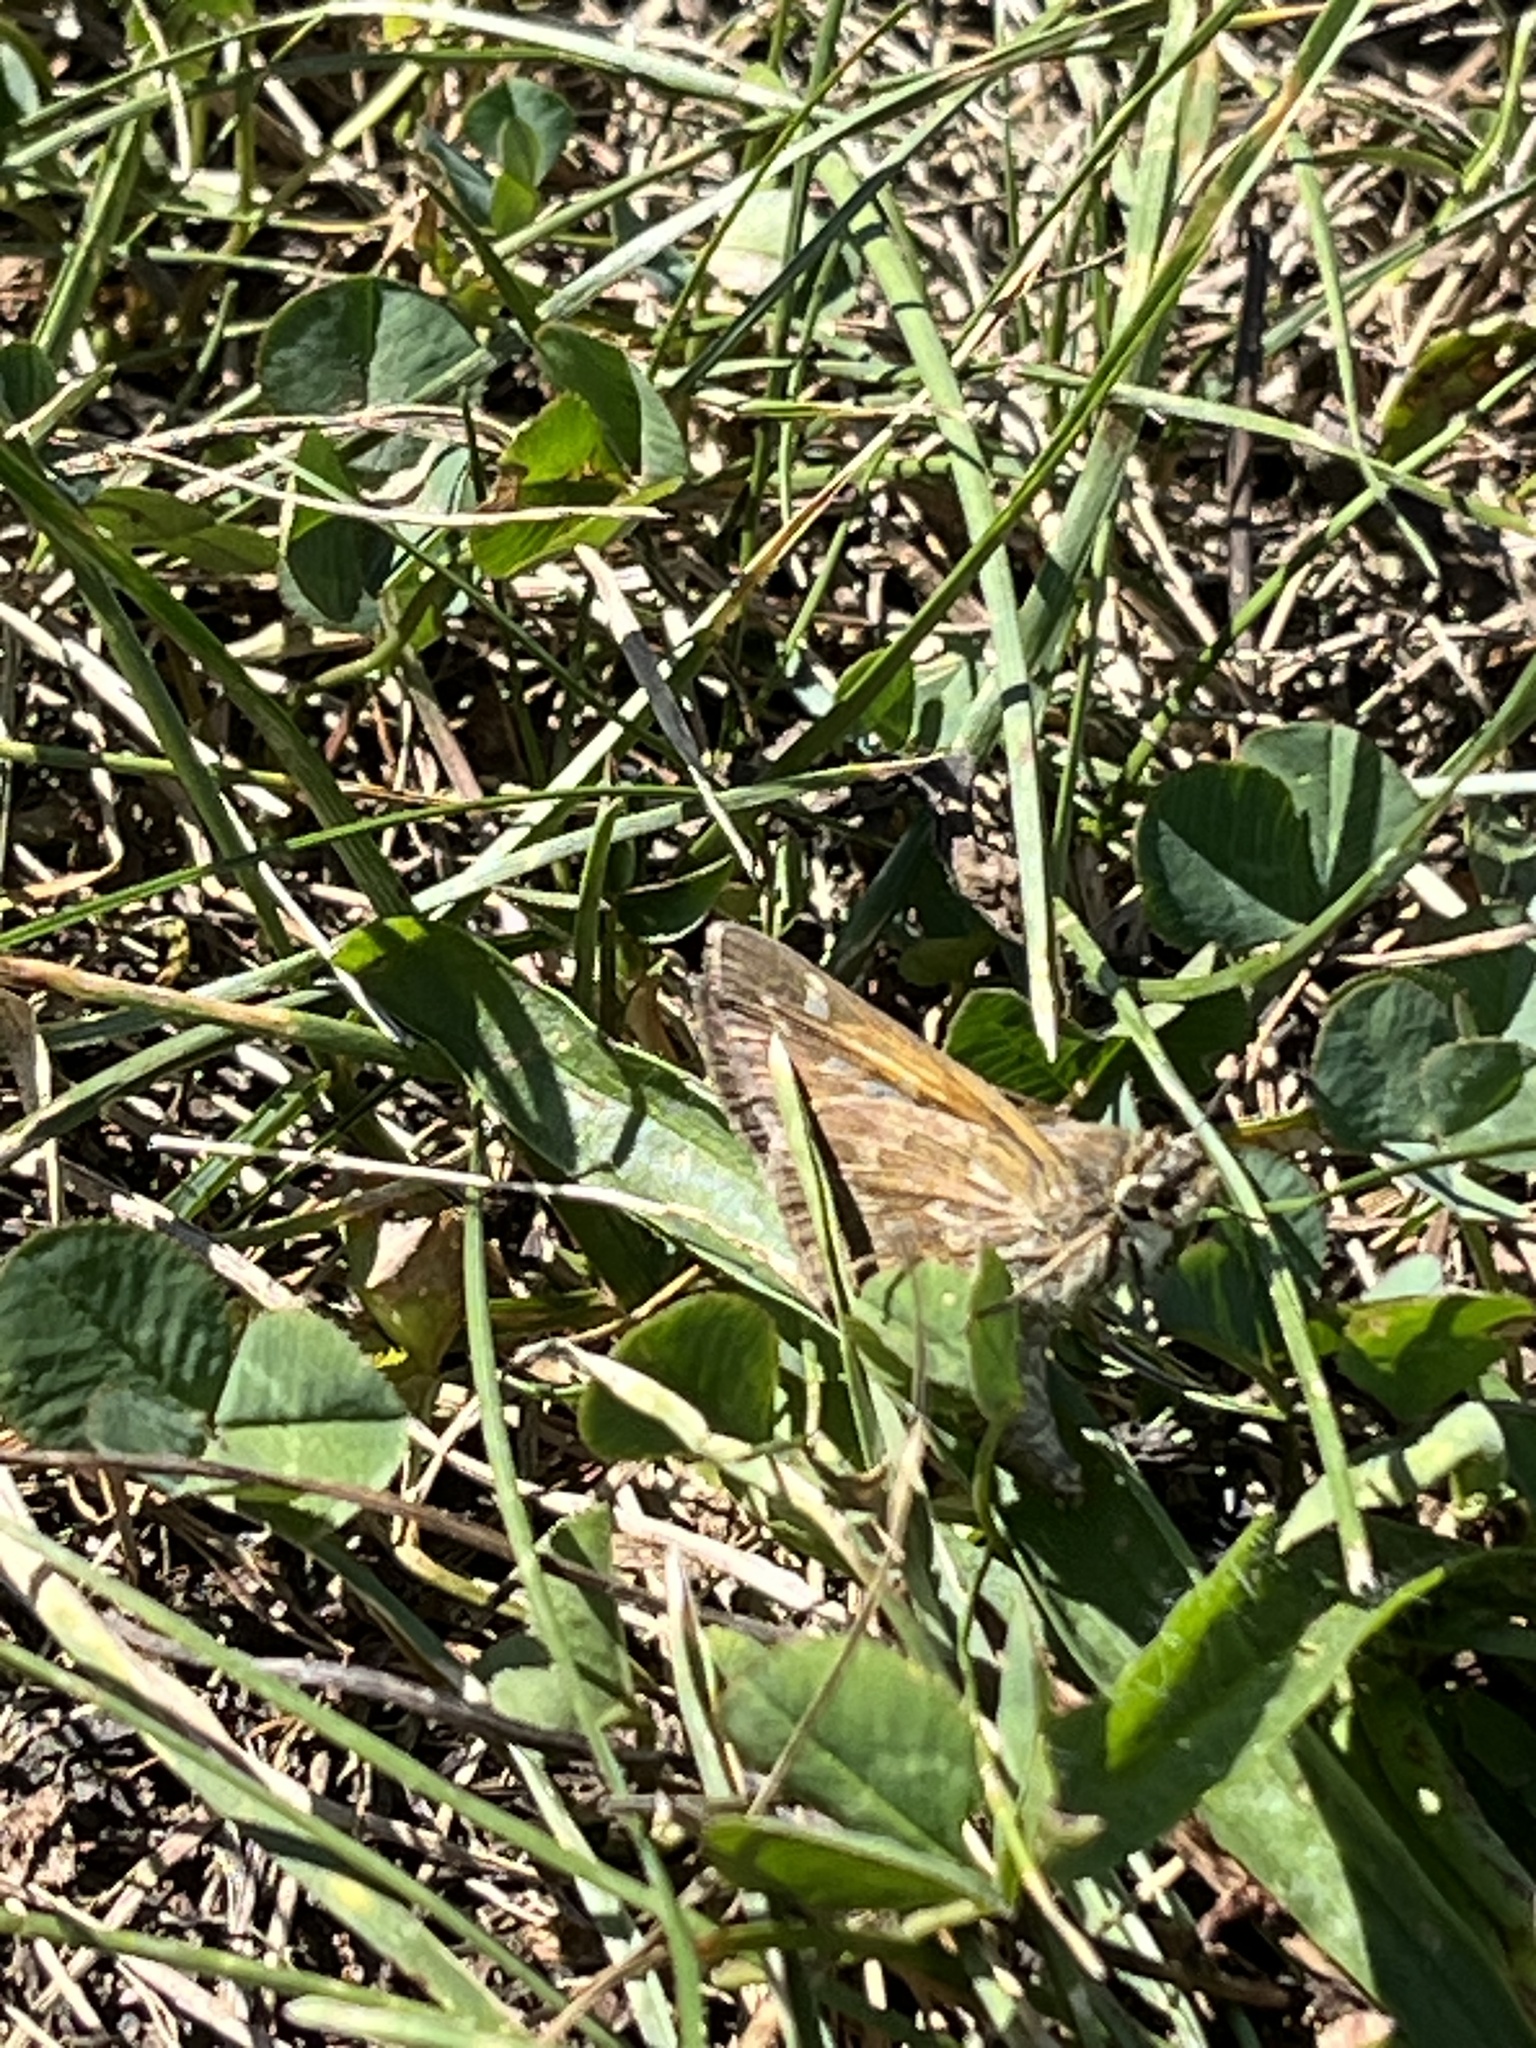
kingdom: Animalia
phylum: Arthropoda
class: Insecta
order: Lepidoptera
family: Hesperiidae
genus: Atalopedes
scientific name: Atalopedes
